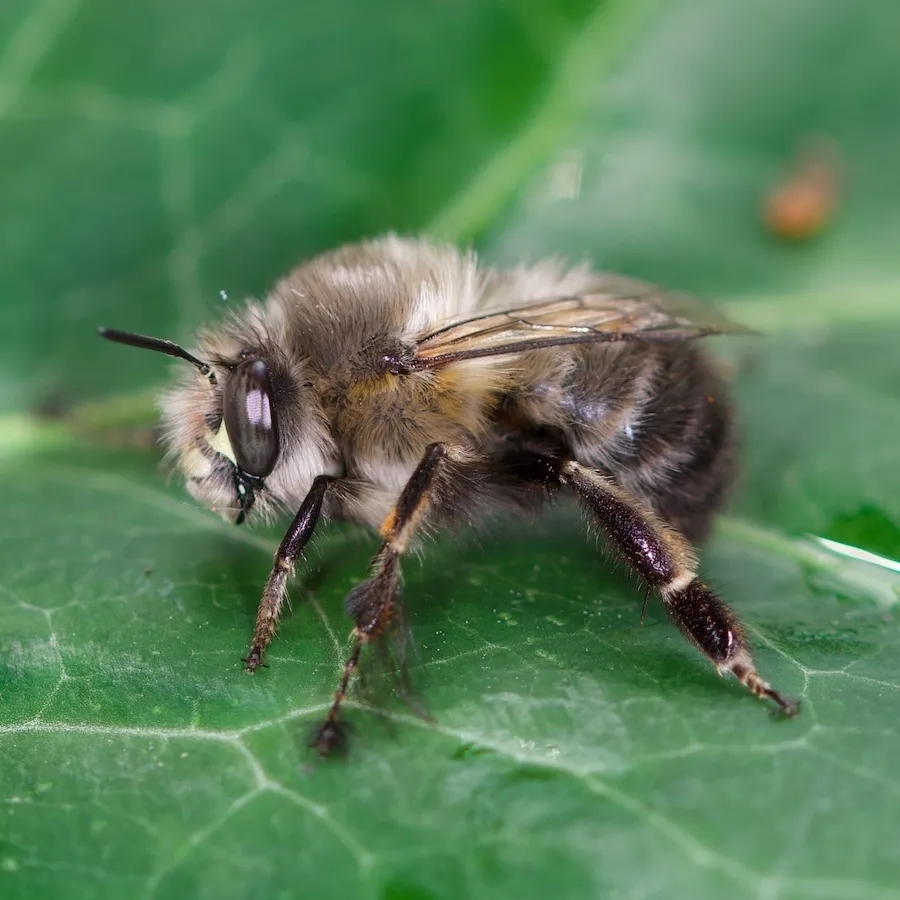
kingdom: Animalia
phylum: Arthropoda
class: Insecta
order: Hymenoptera
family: Apidae
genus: Anthophora
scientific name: Anthophora plumipes
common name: Hairy-footed flower bee
